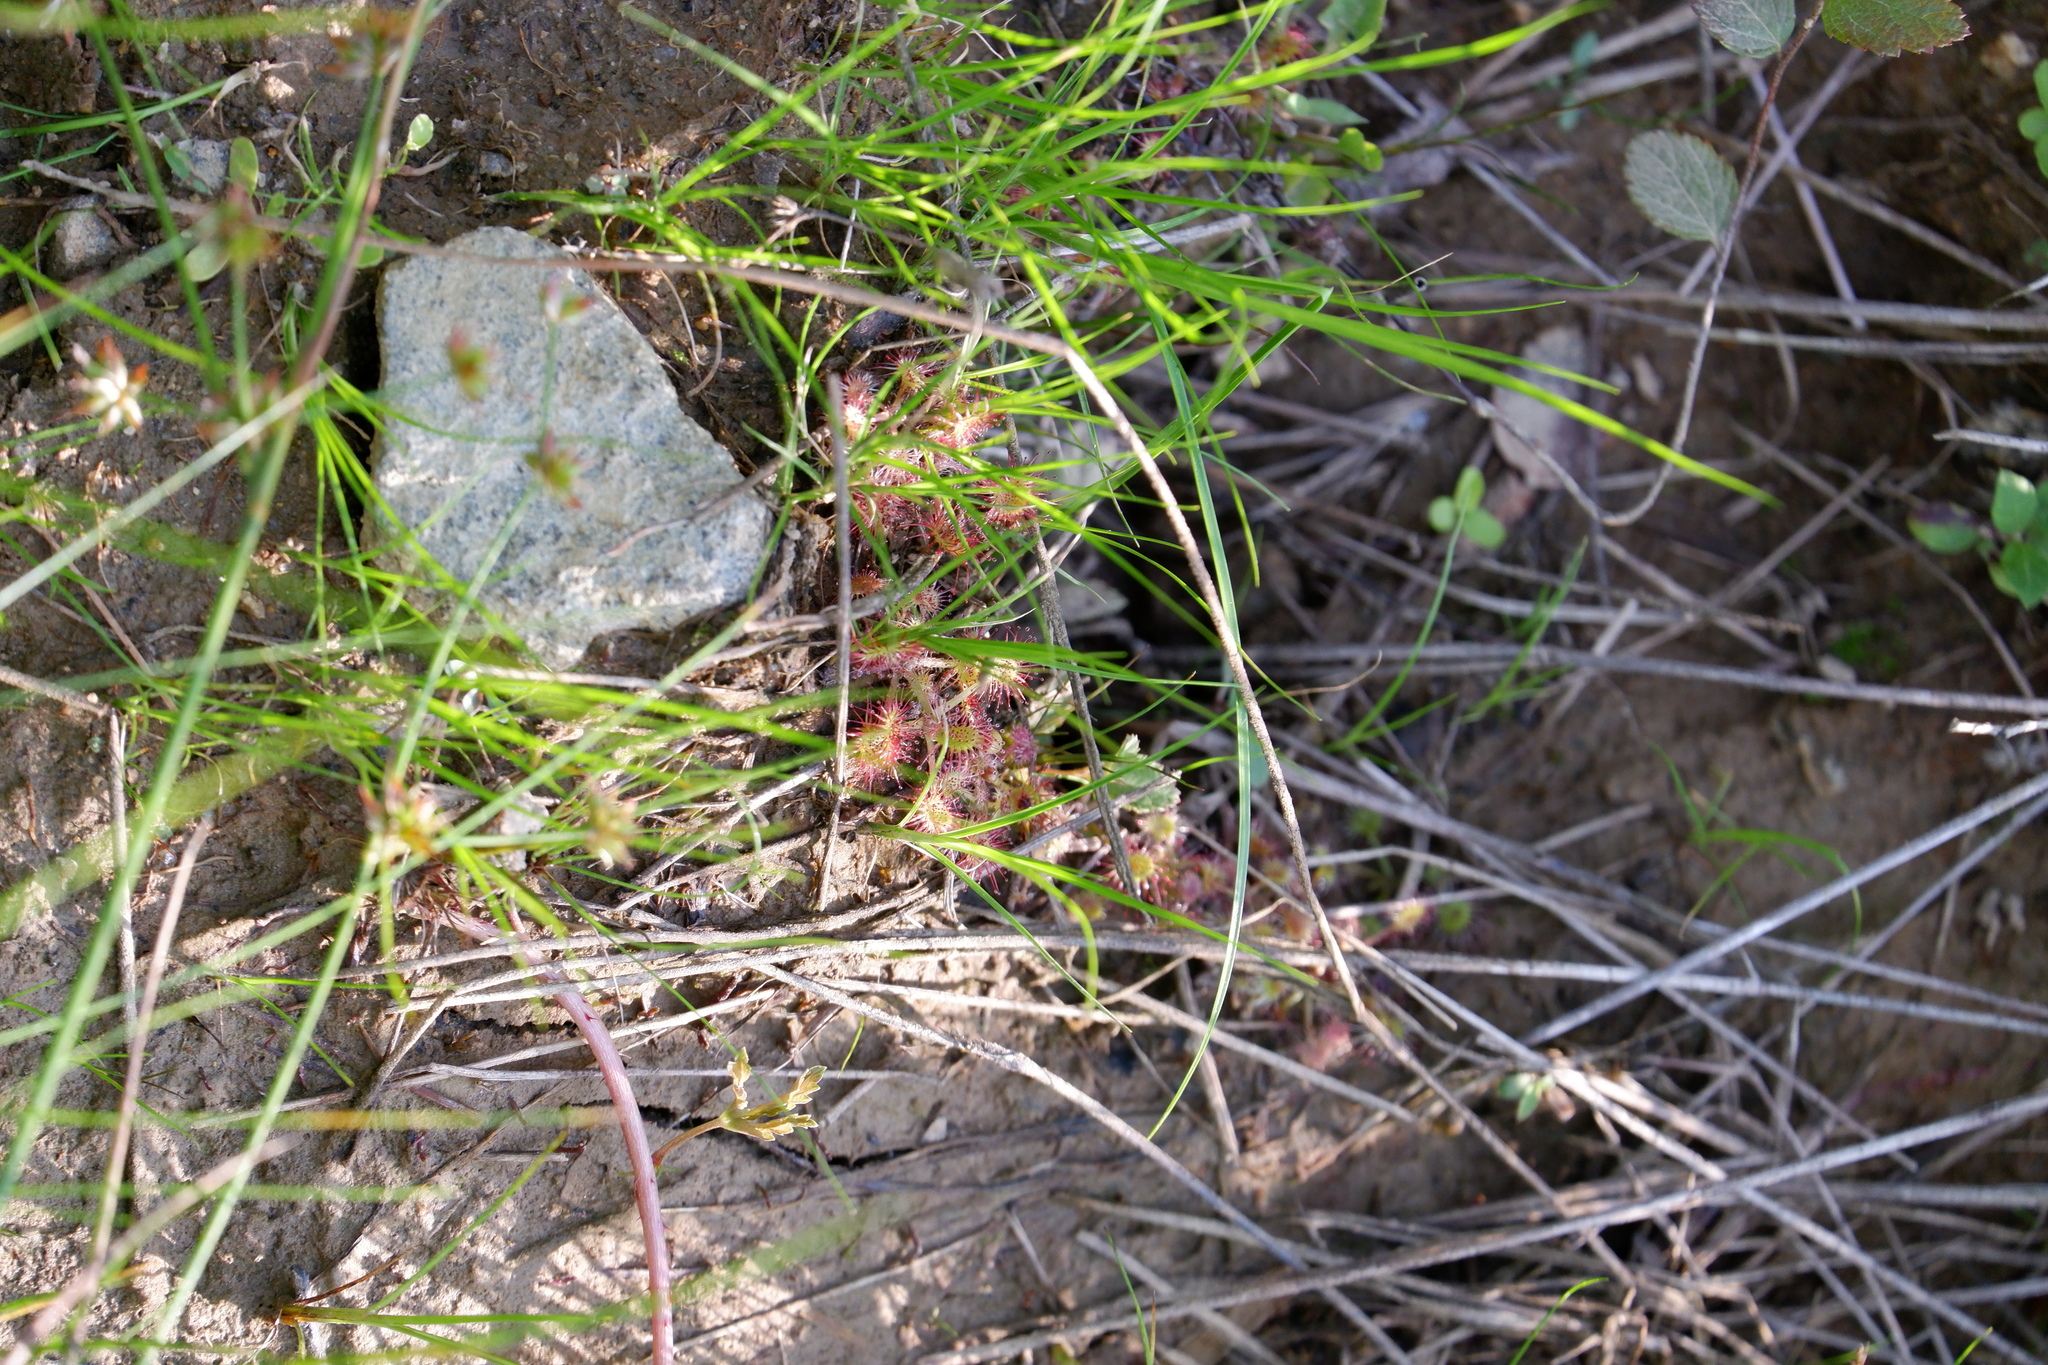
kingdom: Plantae
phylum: Tracheophyta
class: Magnoliopsida
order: Caryophyllales
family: Droseraceae
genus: Drosera
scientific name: Drosera rotundifolia
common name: Round-leaved sundew
